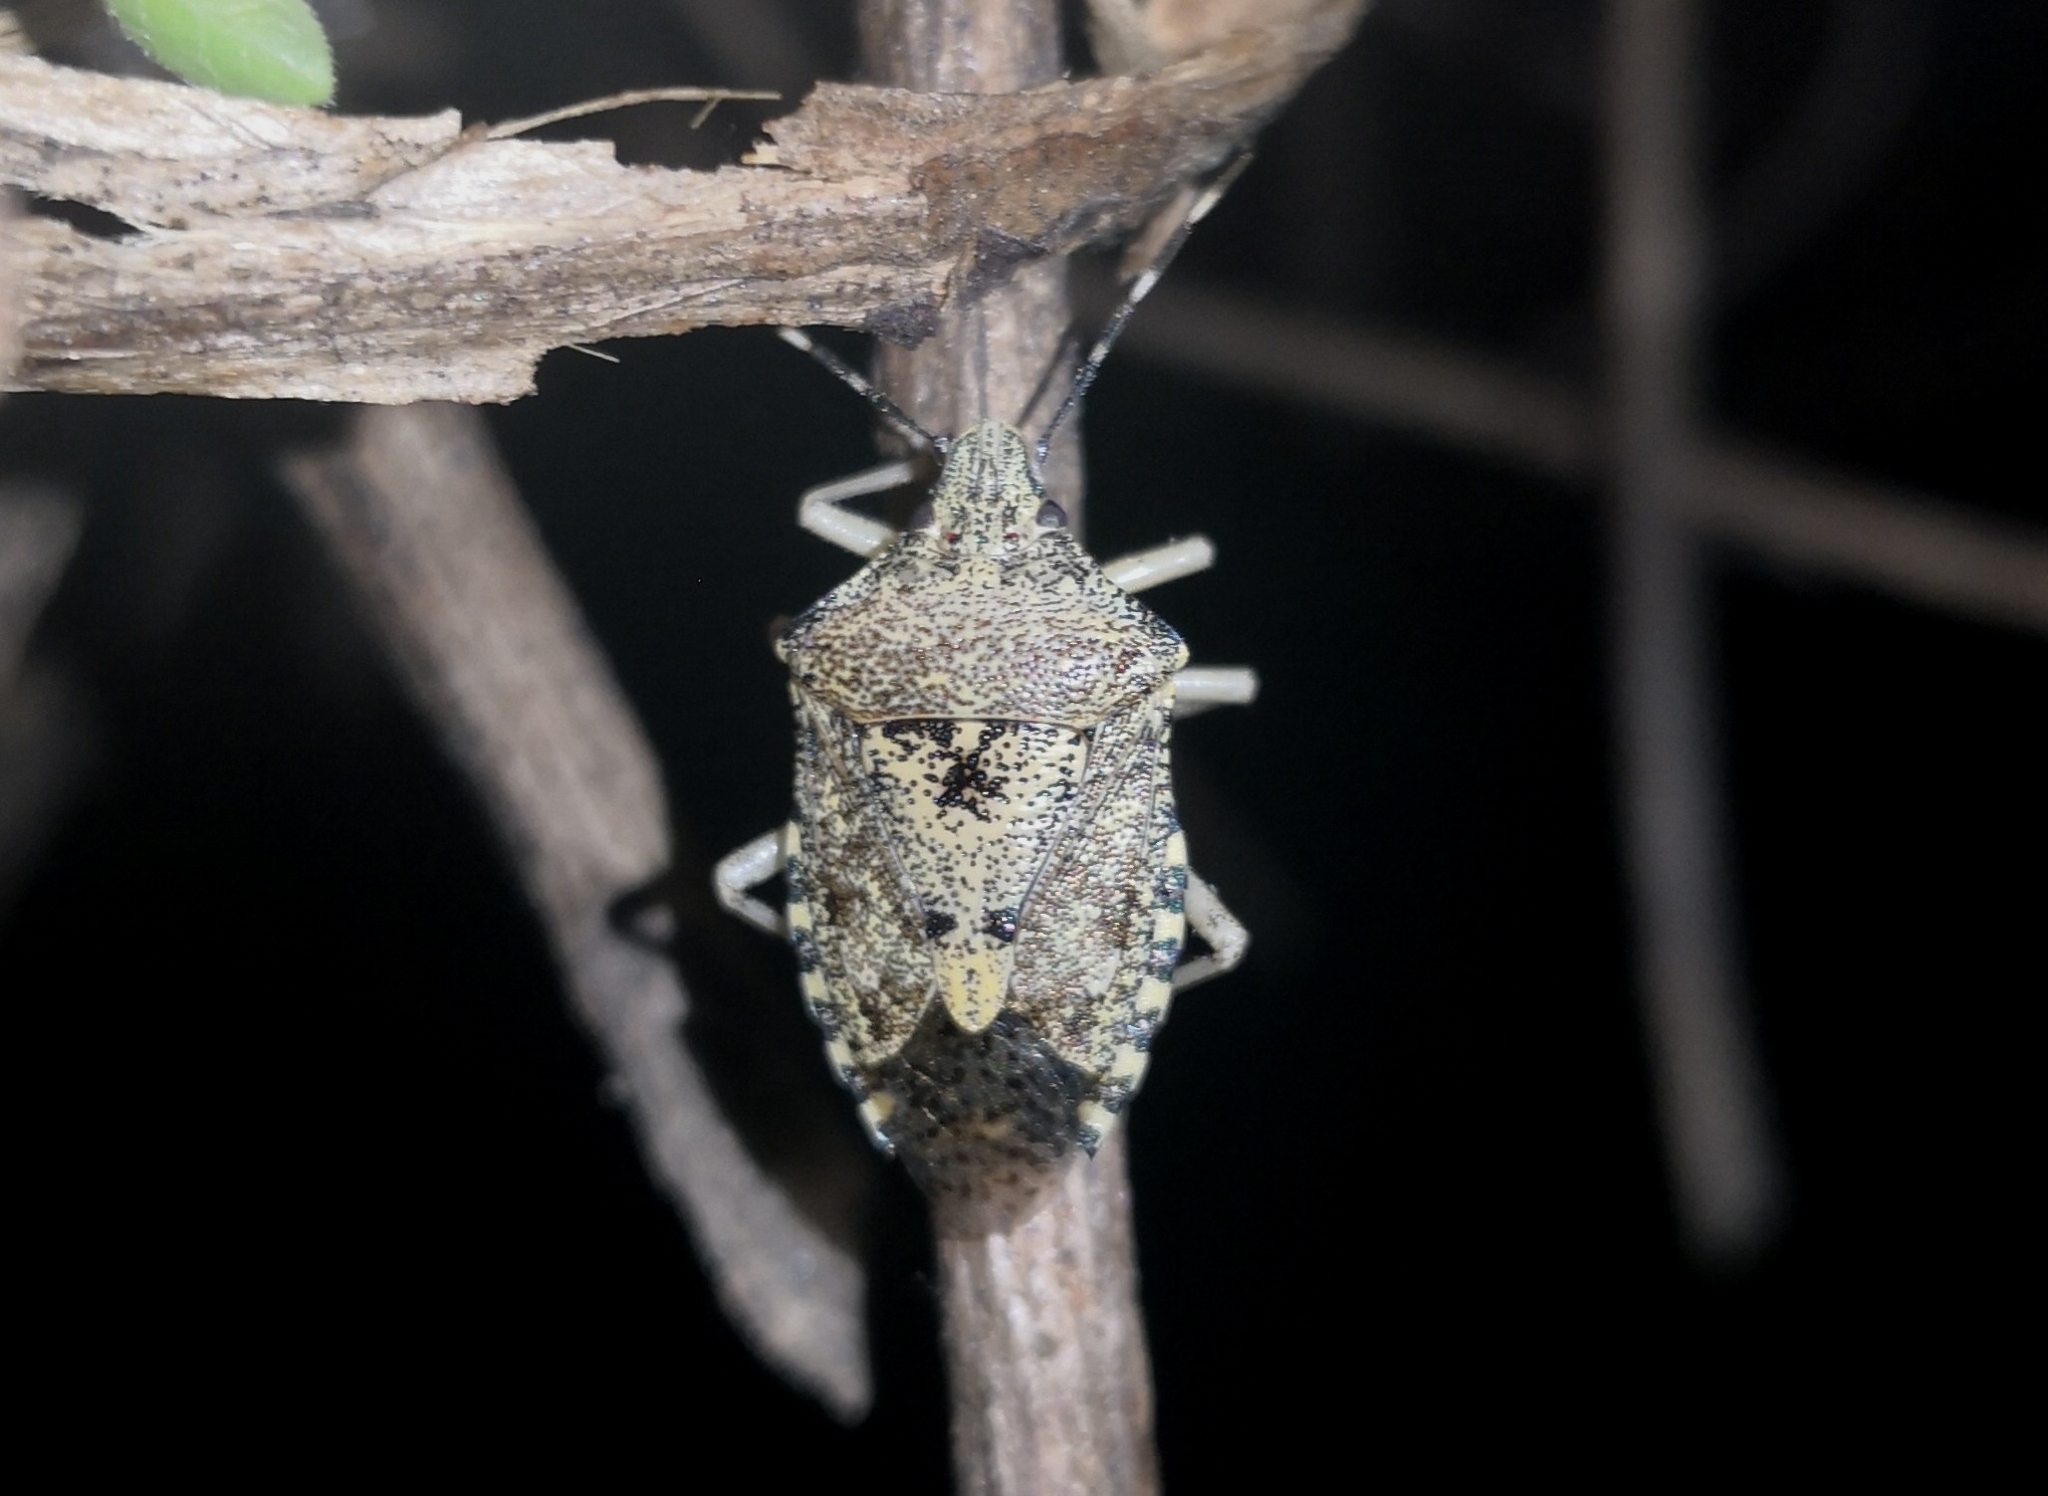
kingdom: Animalia
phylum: Arthropoda
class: Insecta
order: Hemiptera
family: Pentatomidae
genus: Rhaphigaster
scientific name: Rhaphigaster nebulosa
